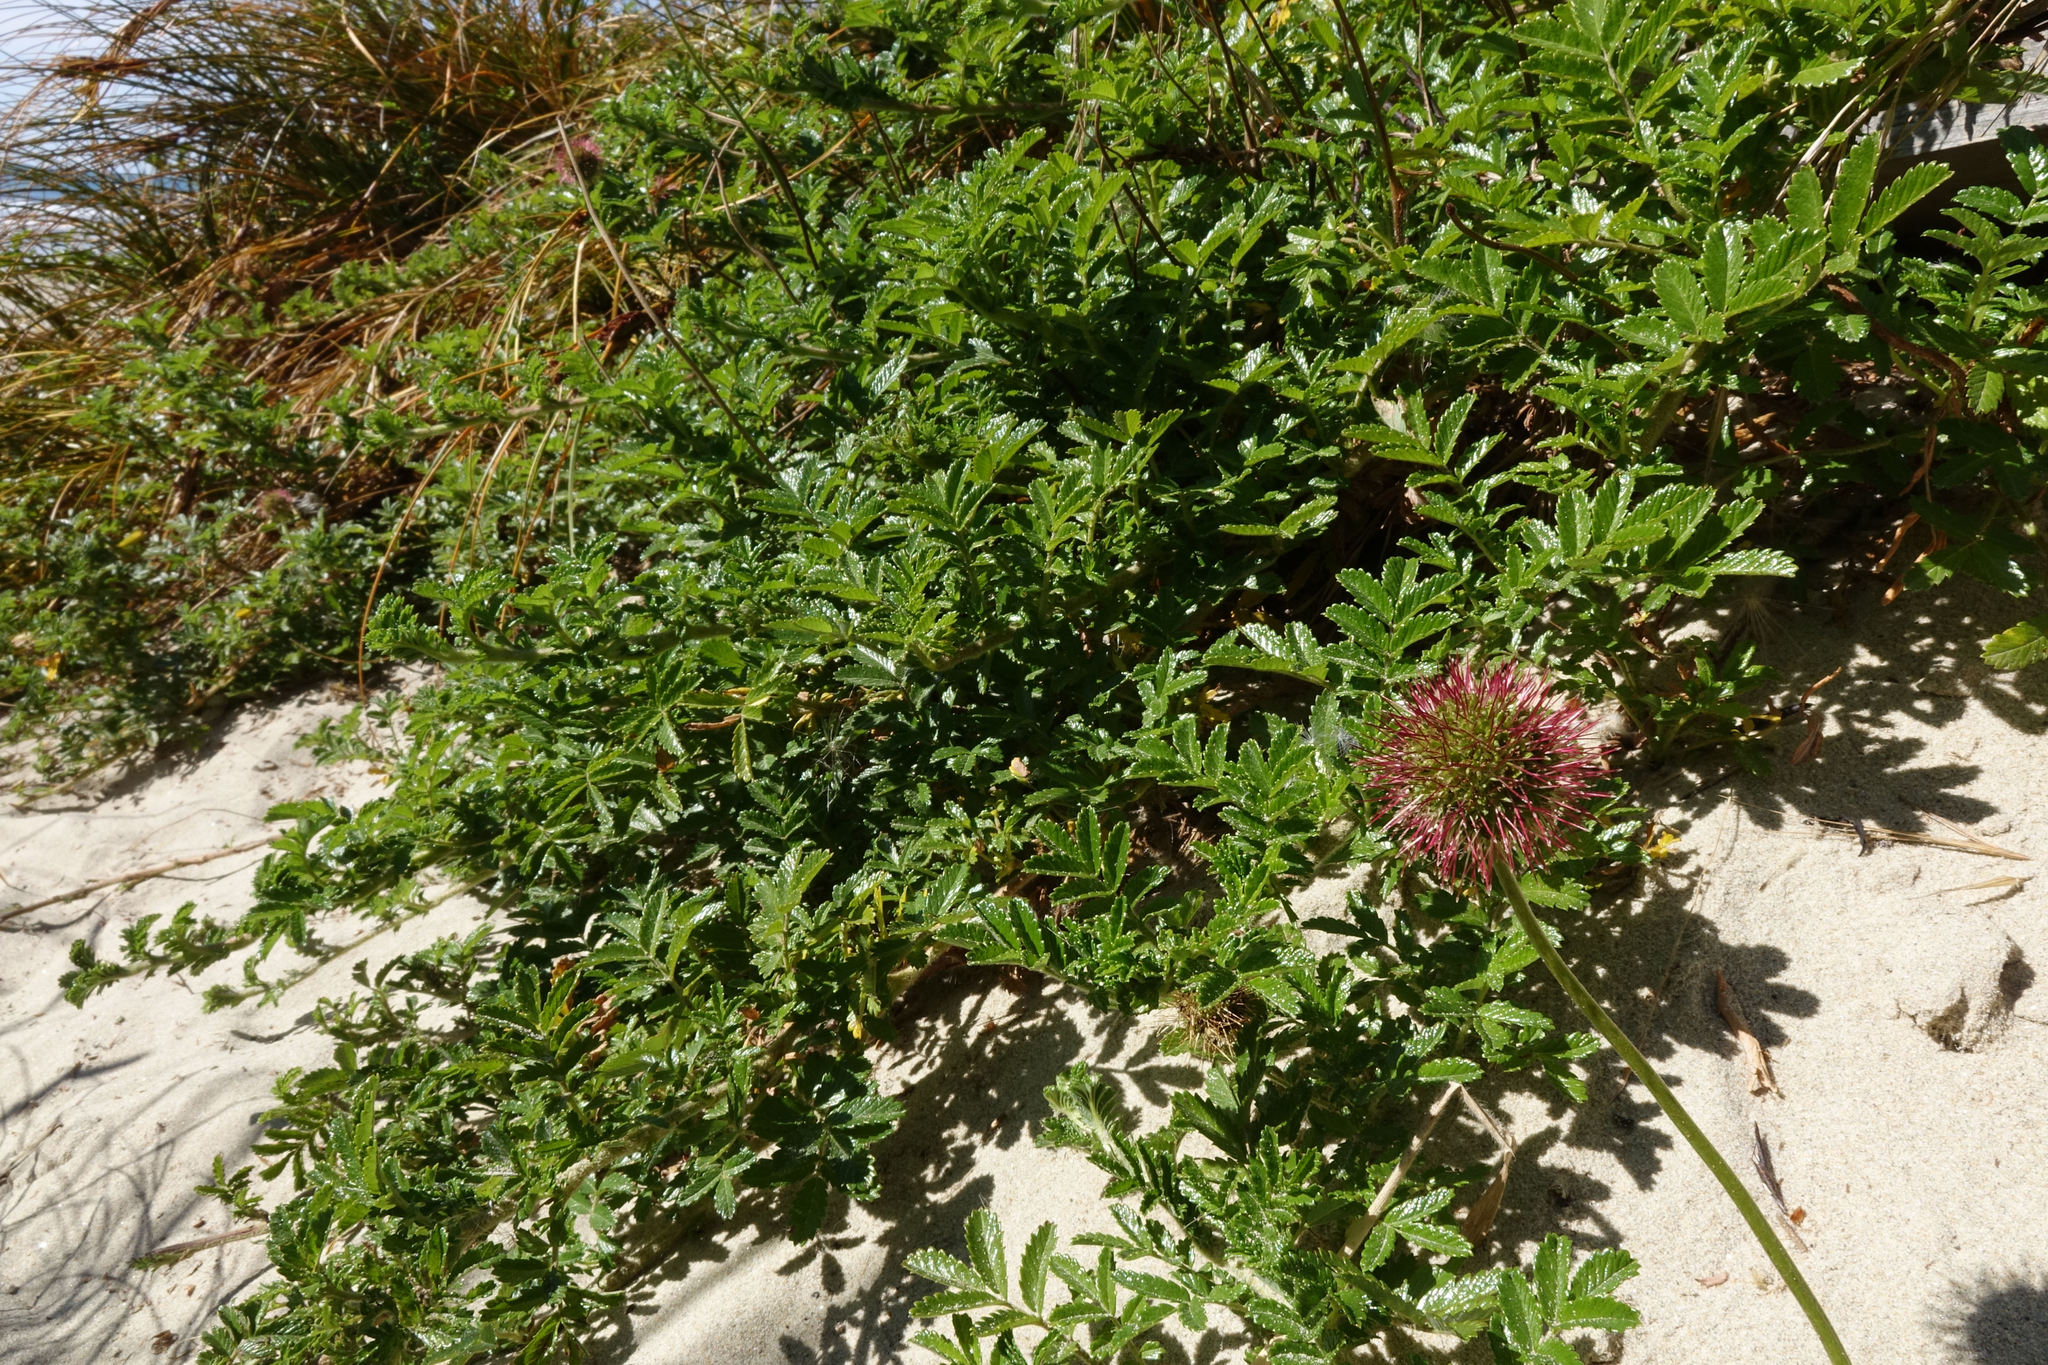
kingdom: Plantae
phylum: Tracheophyta
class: Magnoliopsida
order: Rosales
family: Rosaceae
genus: Acaena
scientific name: Acaena pallida
